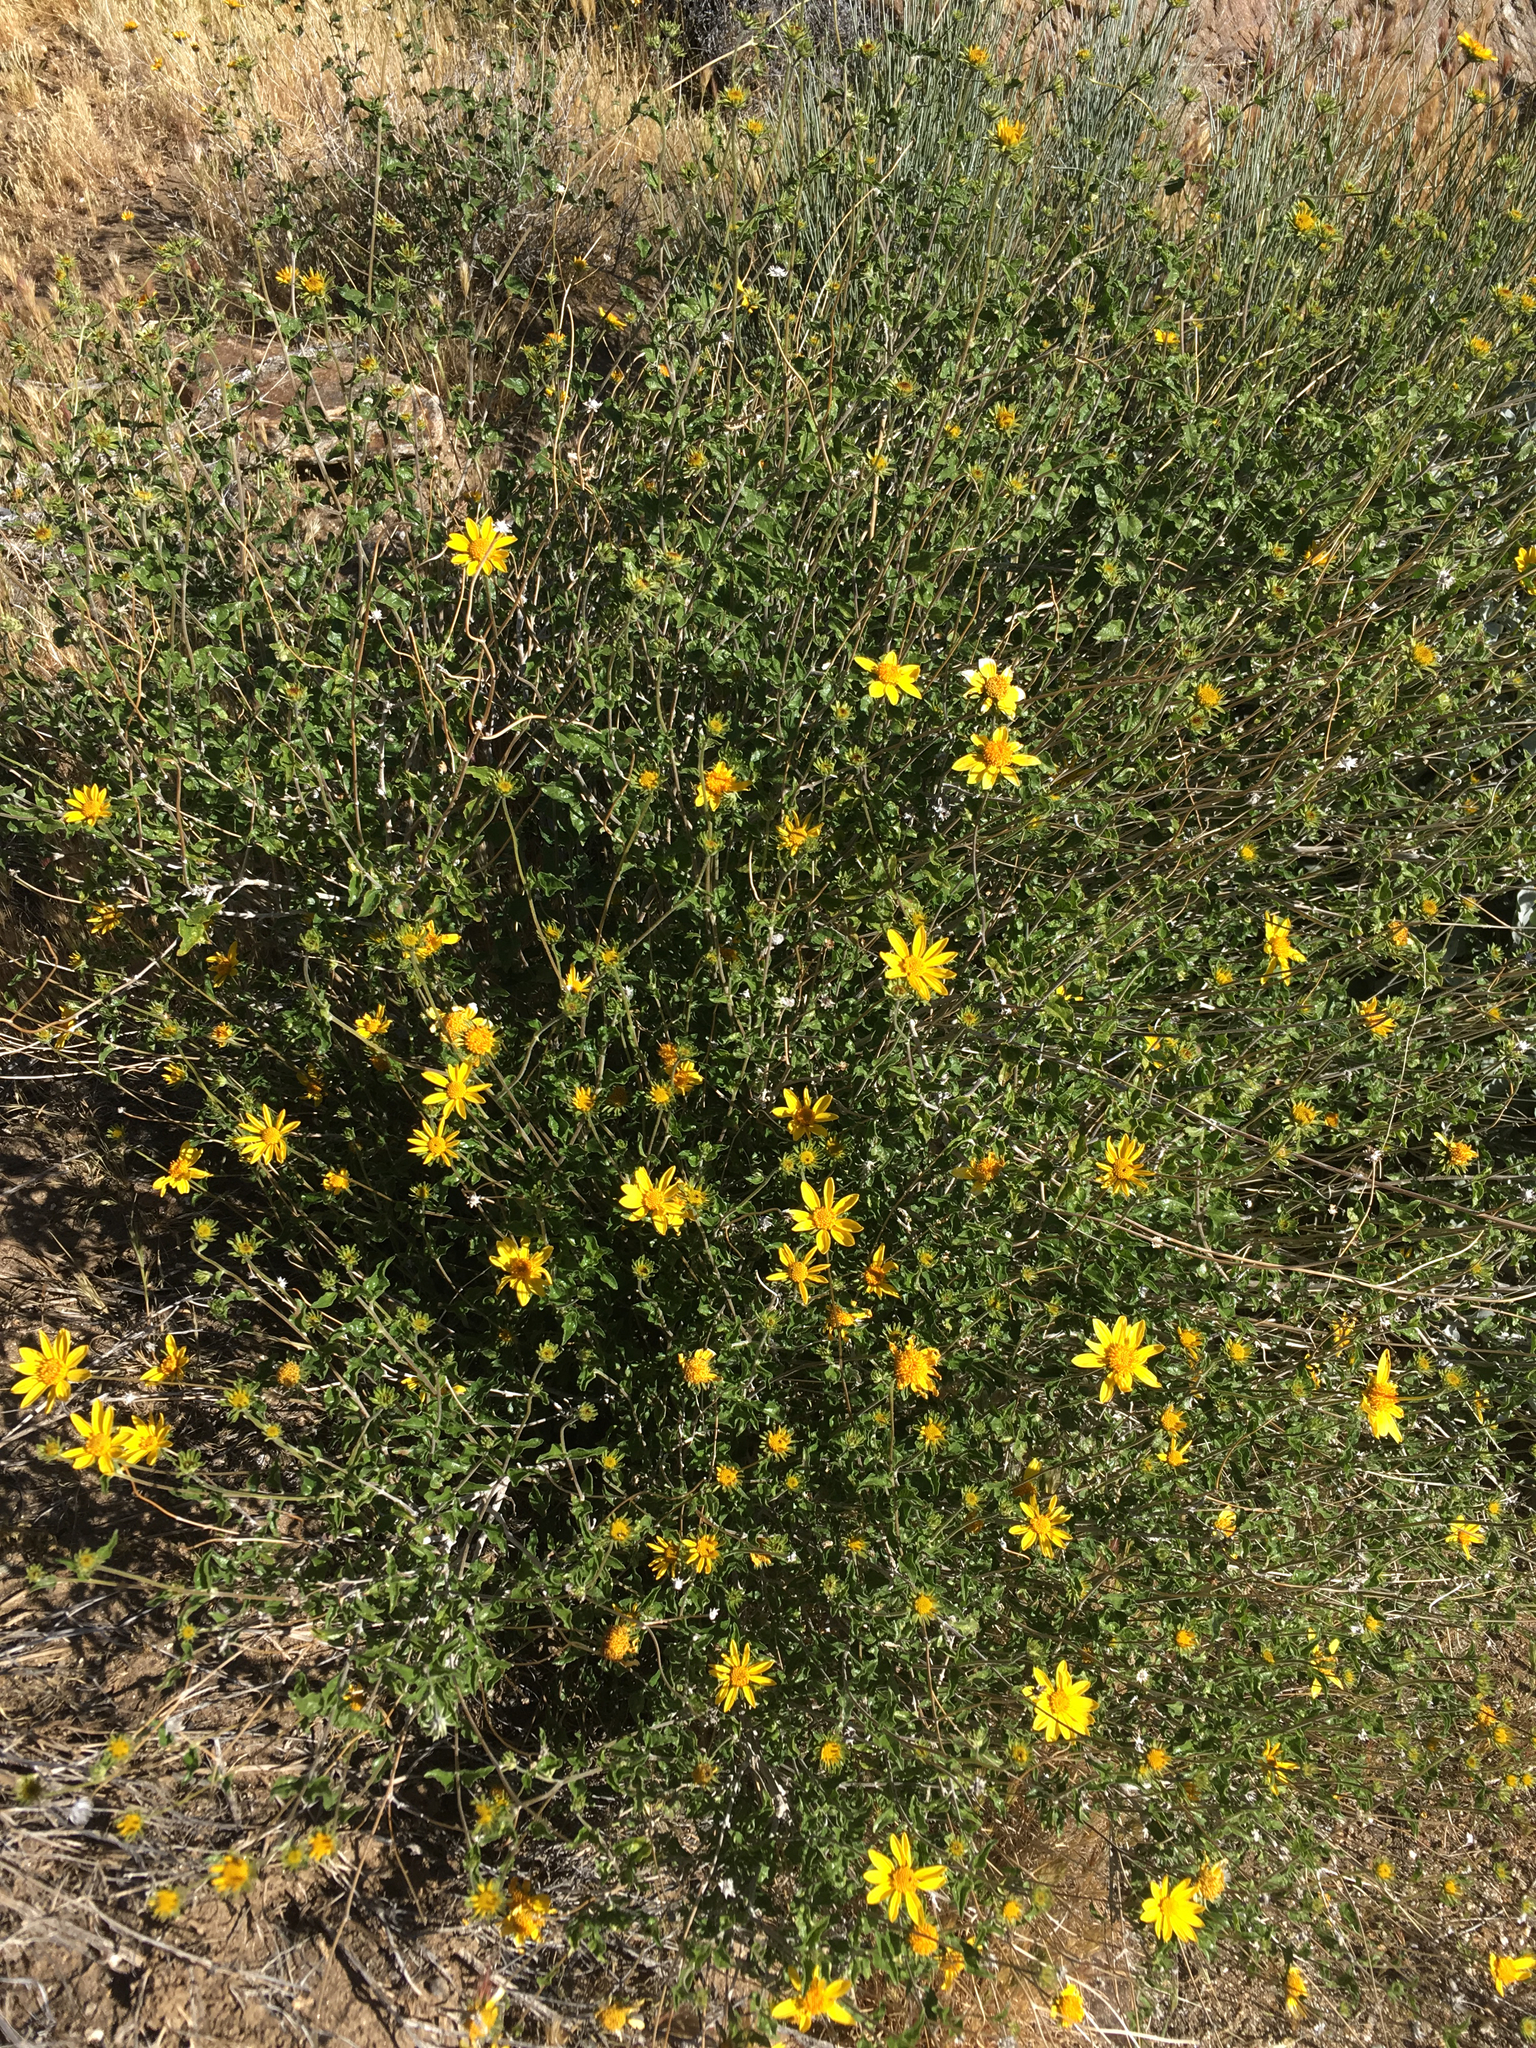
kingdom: Plantae
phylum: Tracheophyta
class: Magnoliopsida
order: Asterales
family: Asteraceae
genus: Bahiopsis
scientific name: Bahiopsis parishii
